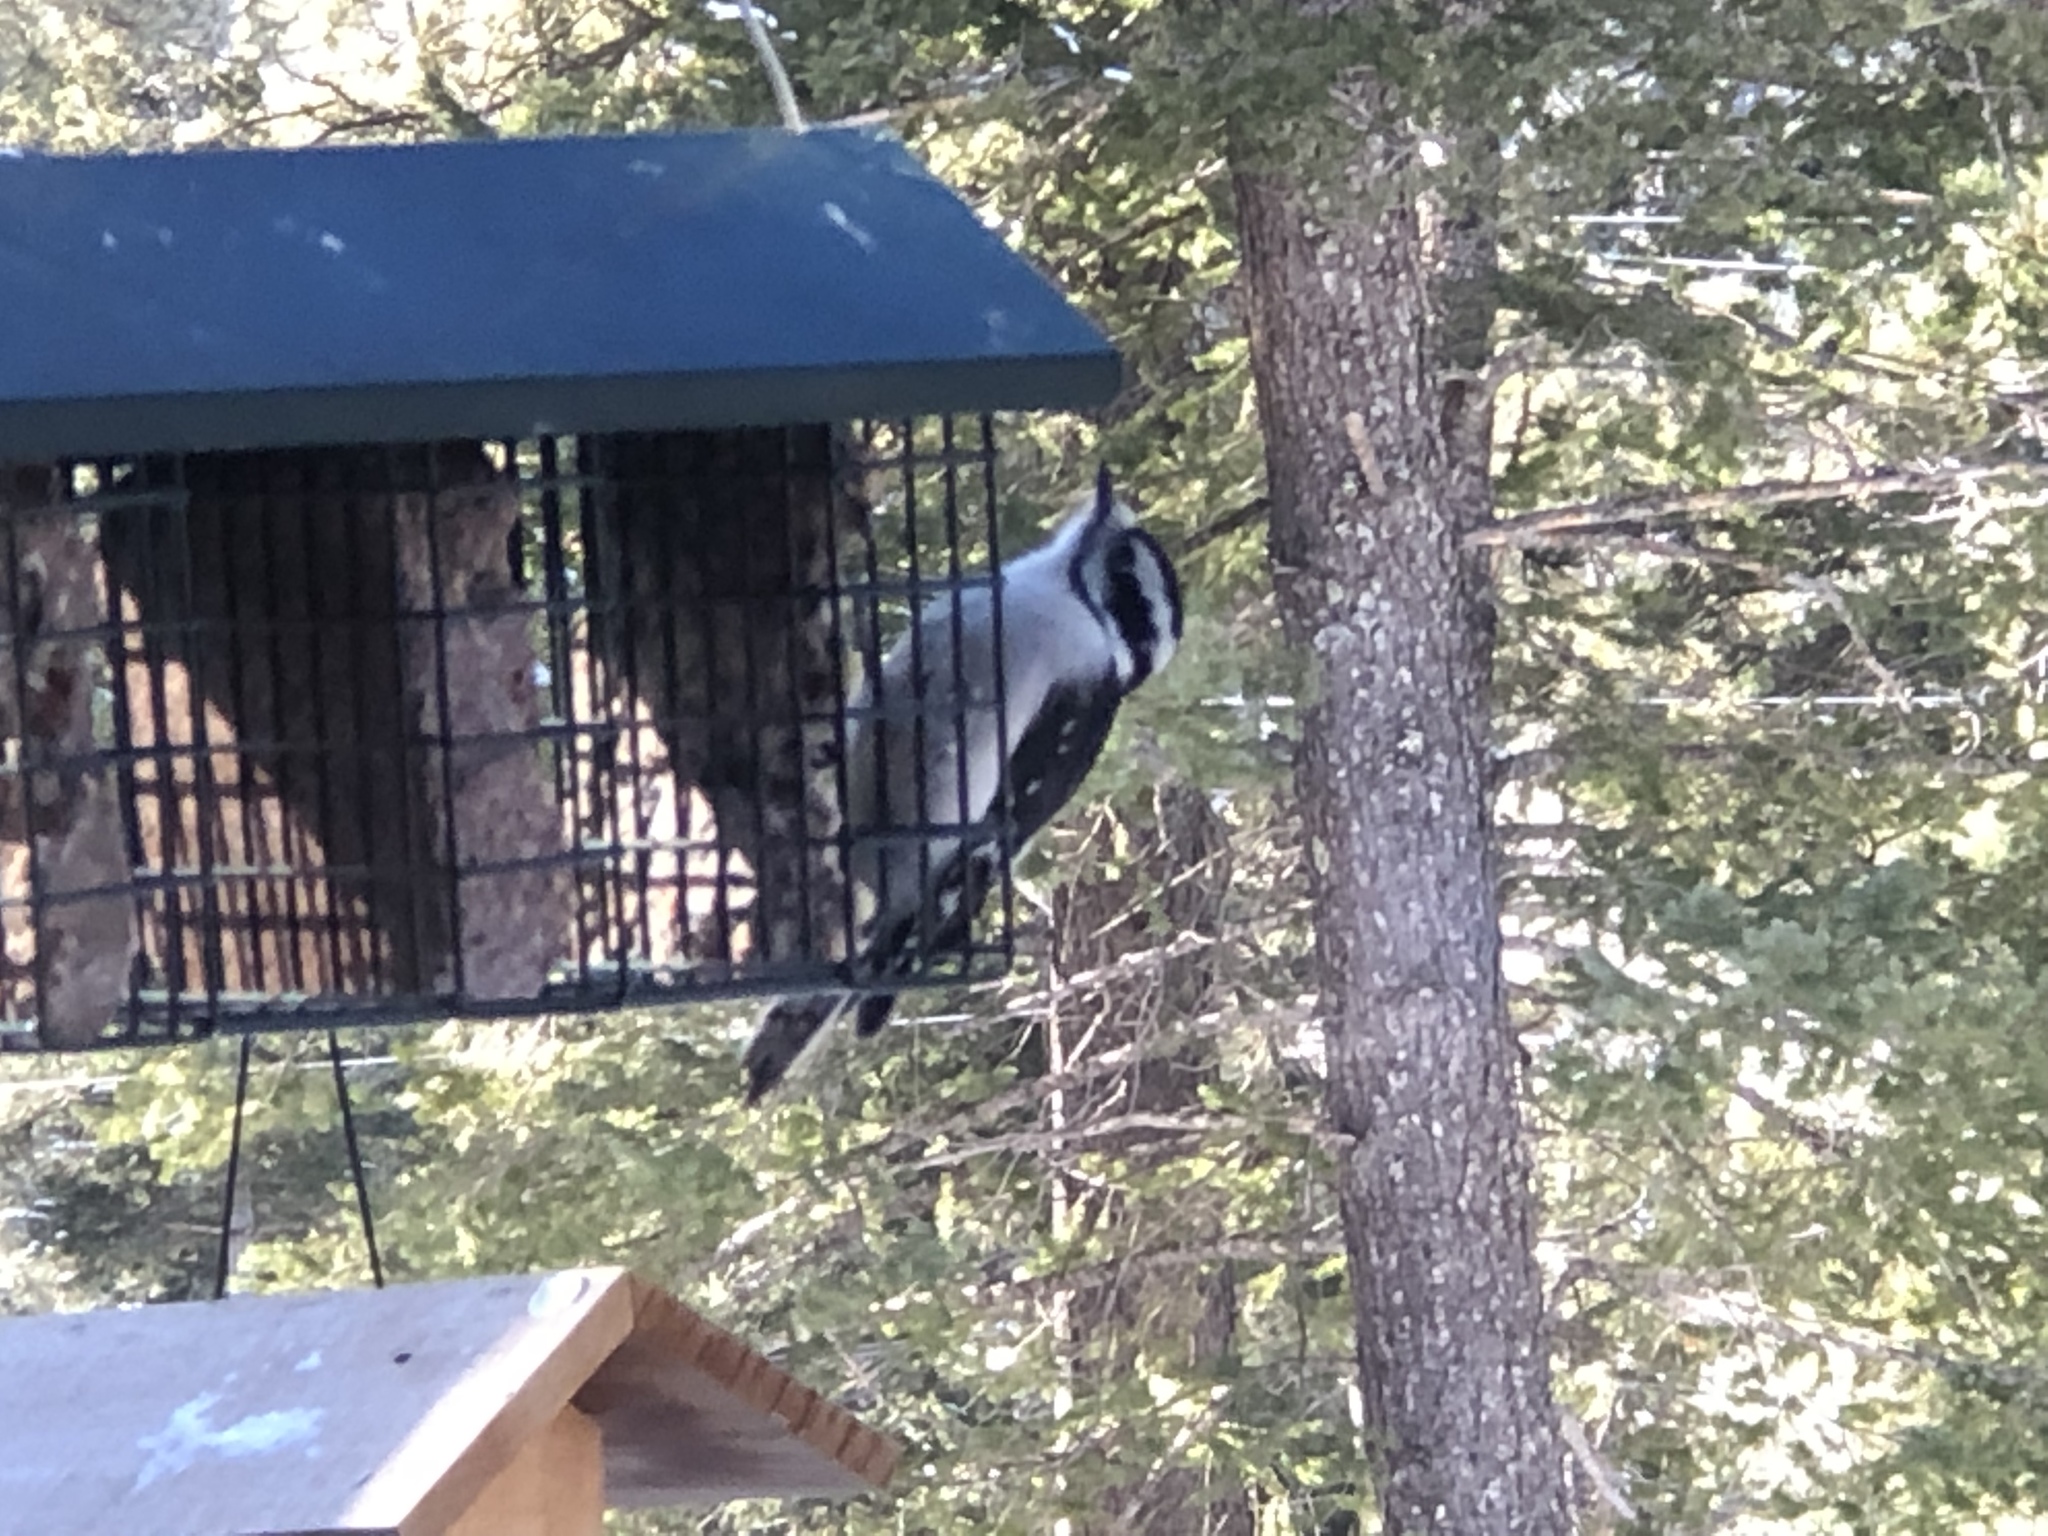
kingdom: Animalia
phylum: Chordata
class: Aves
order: Piciformes
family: Picidae
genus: Dryobates
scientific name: Dryobates pubescens
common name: Downy woodpecker
